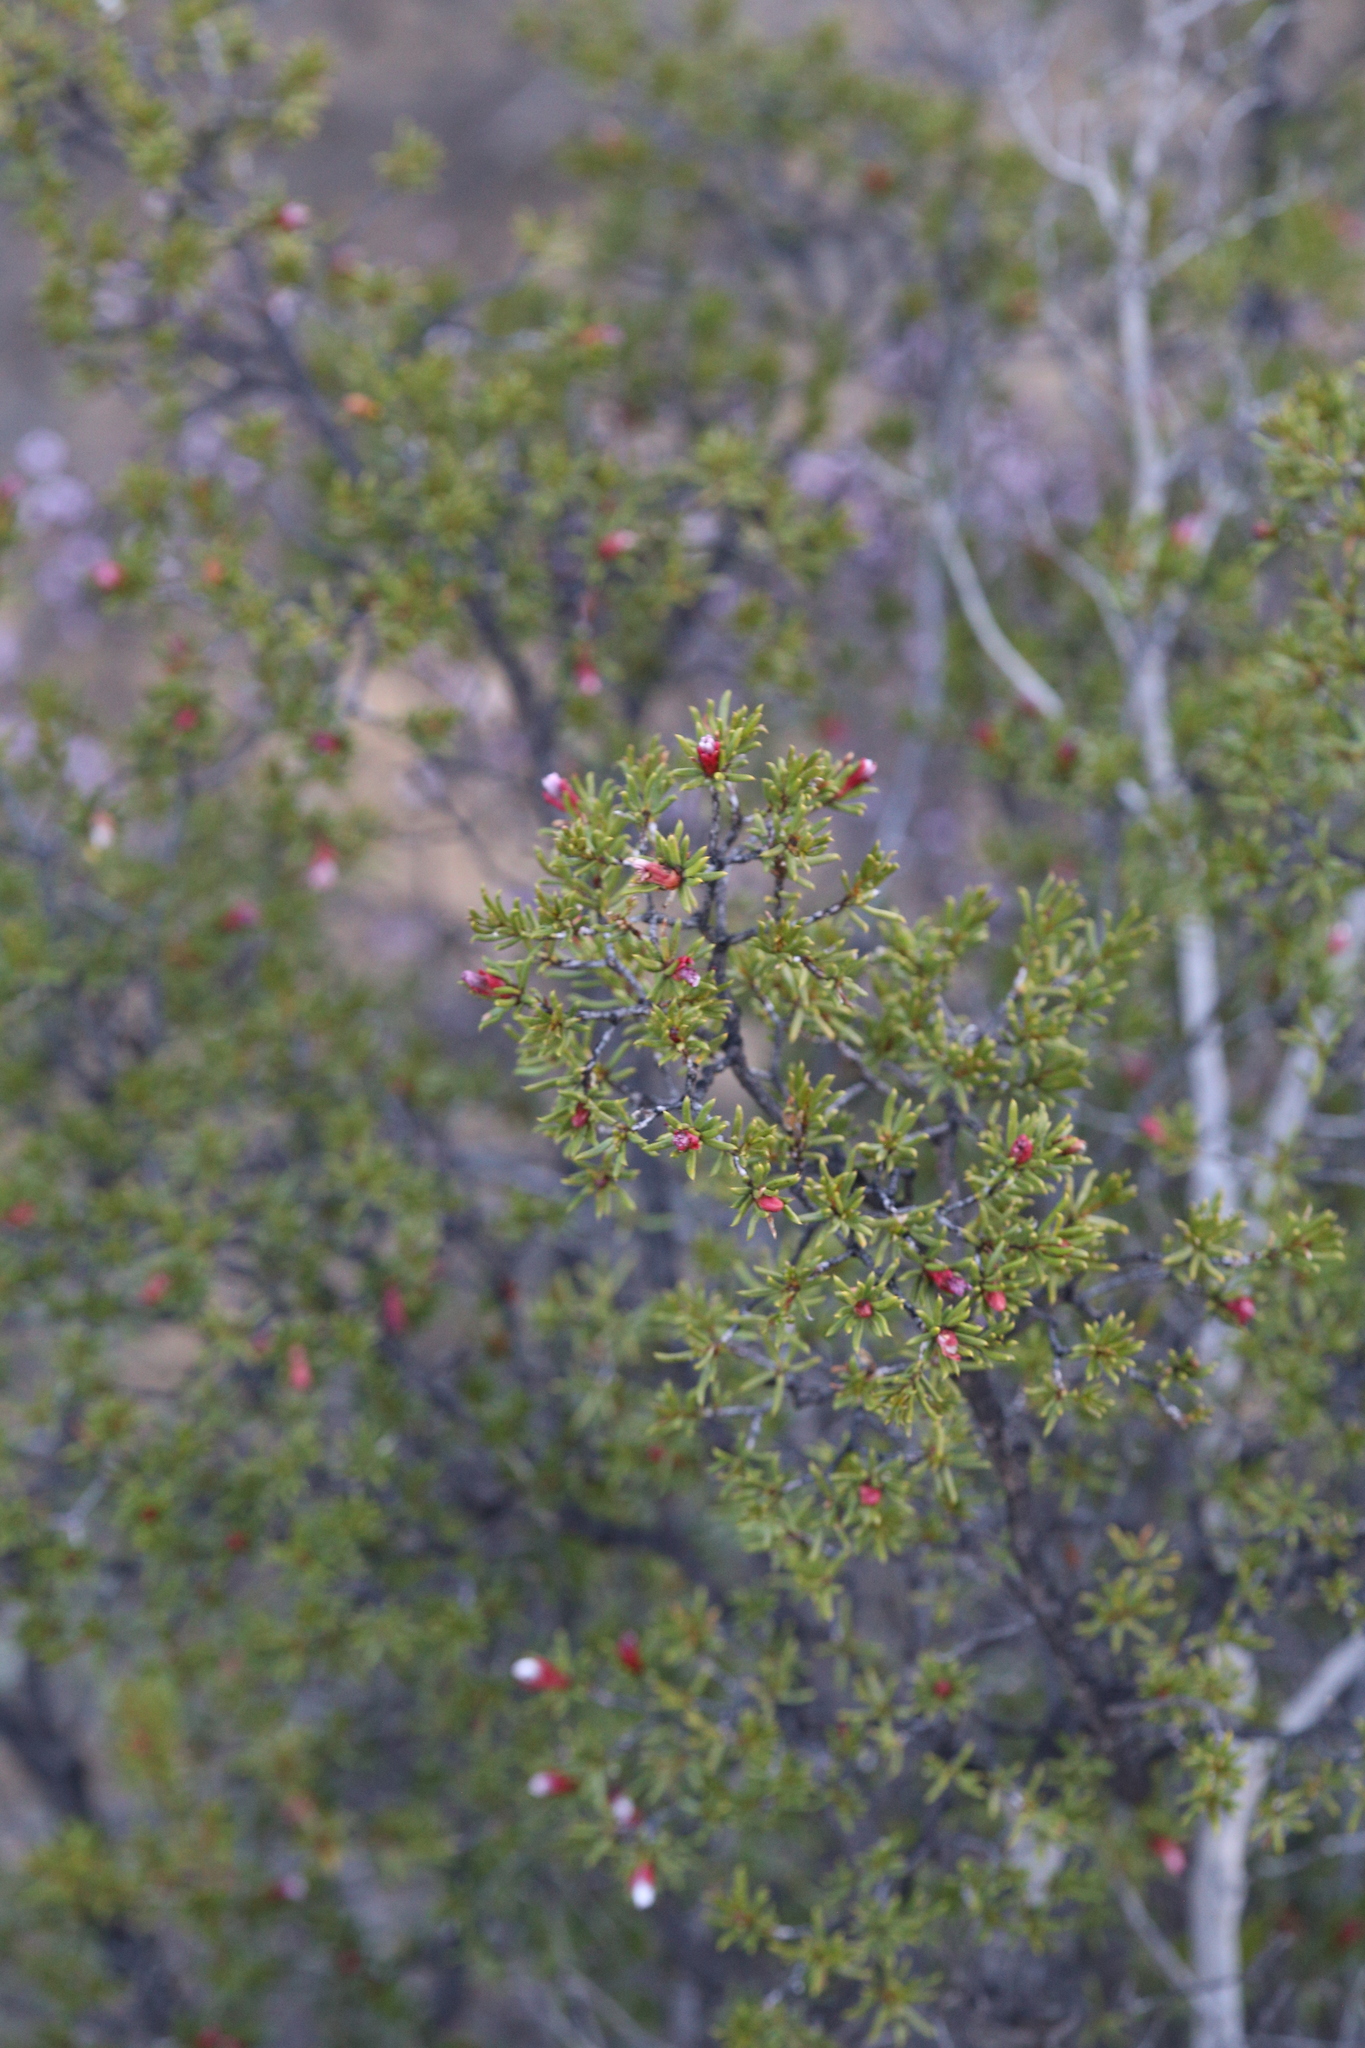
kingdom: Plantae
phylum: Tracheophyta
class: Magnoliopsida
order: Sapindales
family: Rutaceae
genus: Drummondita
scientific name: Drummondita hassellii
